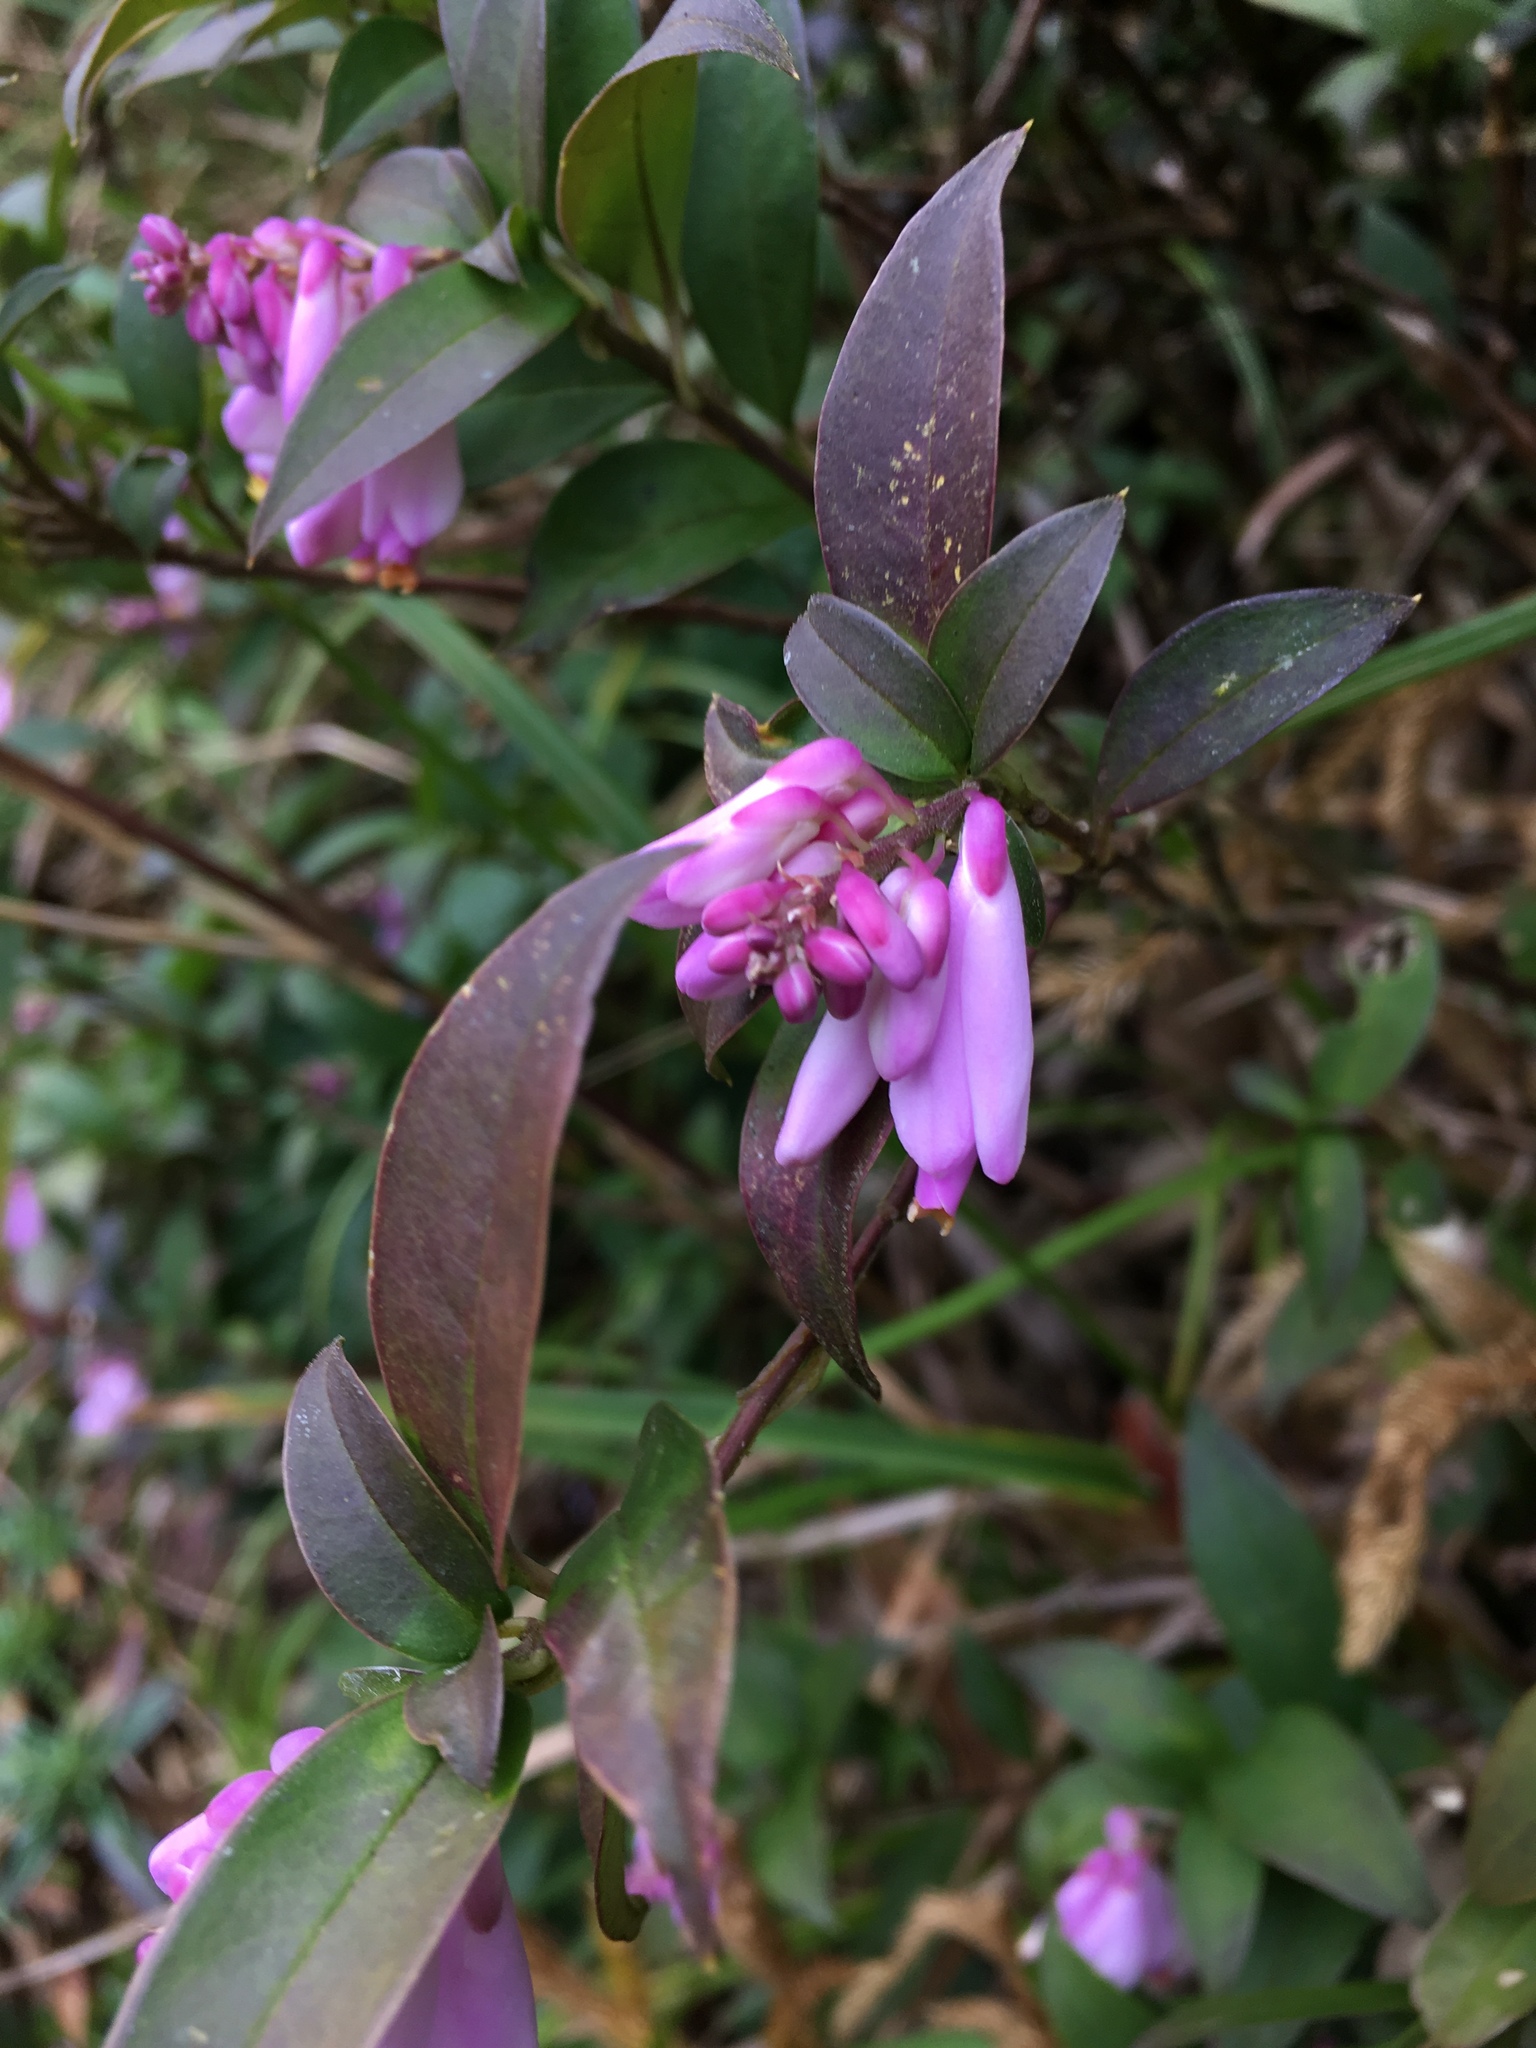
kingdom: Plantae
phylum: Tracheophyta
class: Magnoliopsida
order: Fabales
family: Polygalaceae
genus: Polygala
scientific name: Polygala karensium
